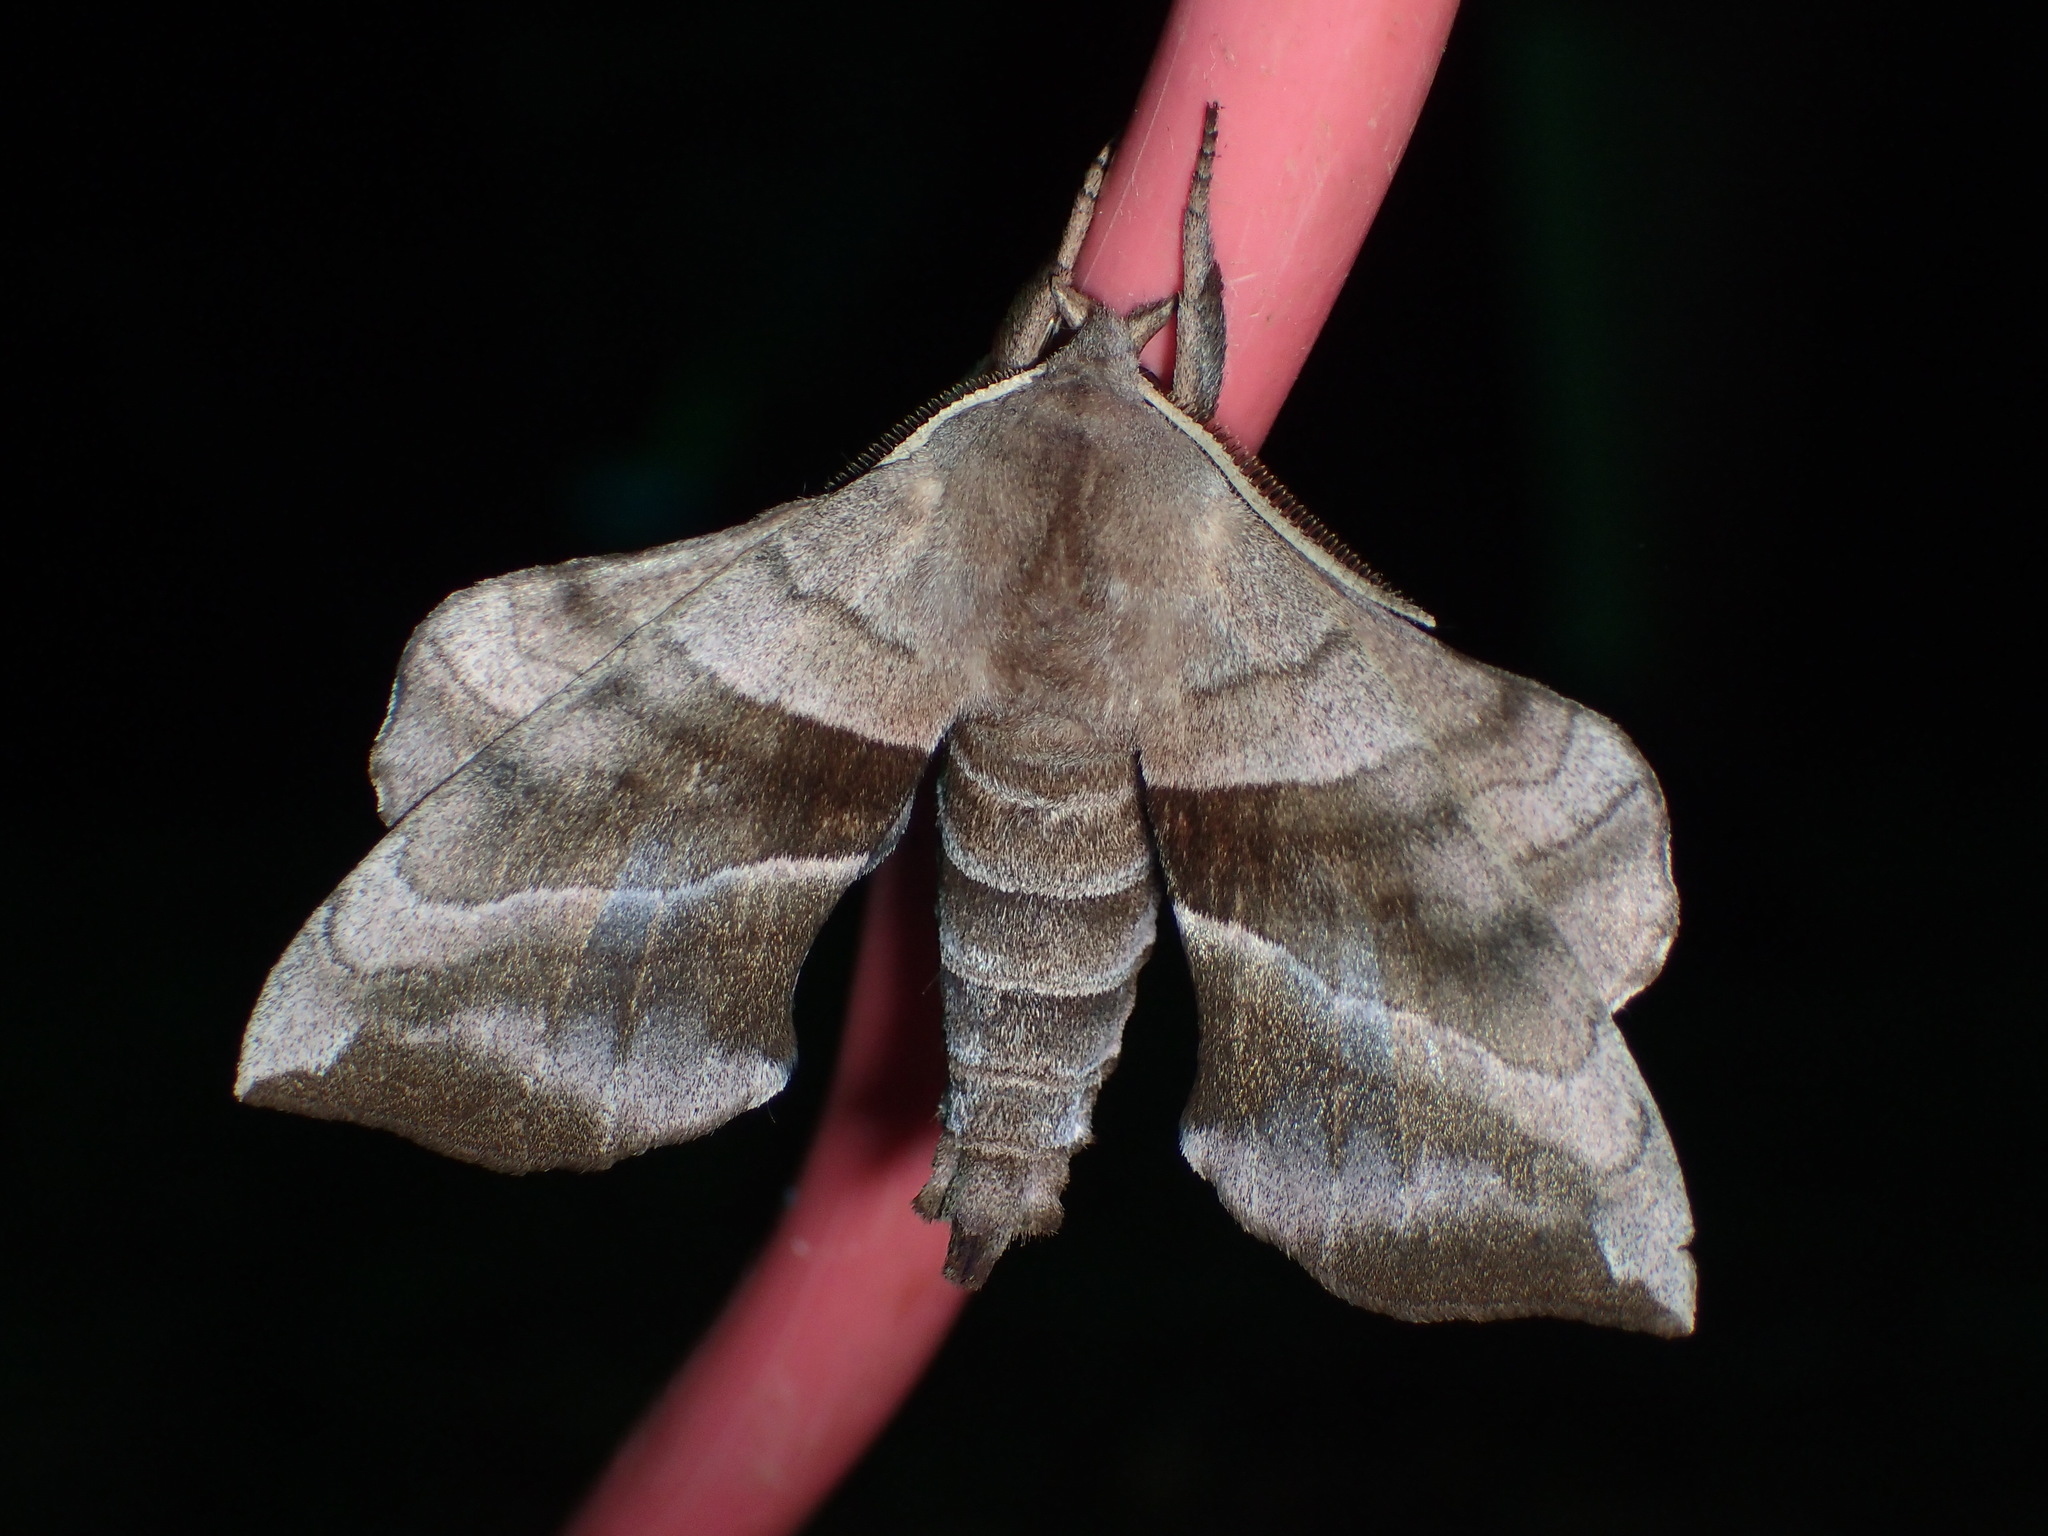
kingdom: Animalia
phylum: Arthropoda
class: Insecta
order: Lepidoptera
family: Sphingidae
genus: Amorpha
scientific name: Amorpha juglandis
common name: Walnut sphinx
